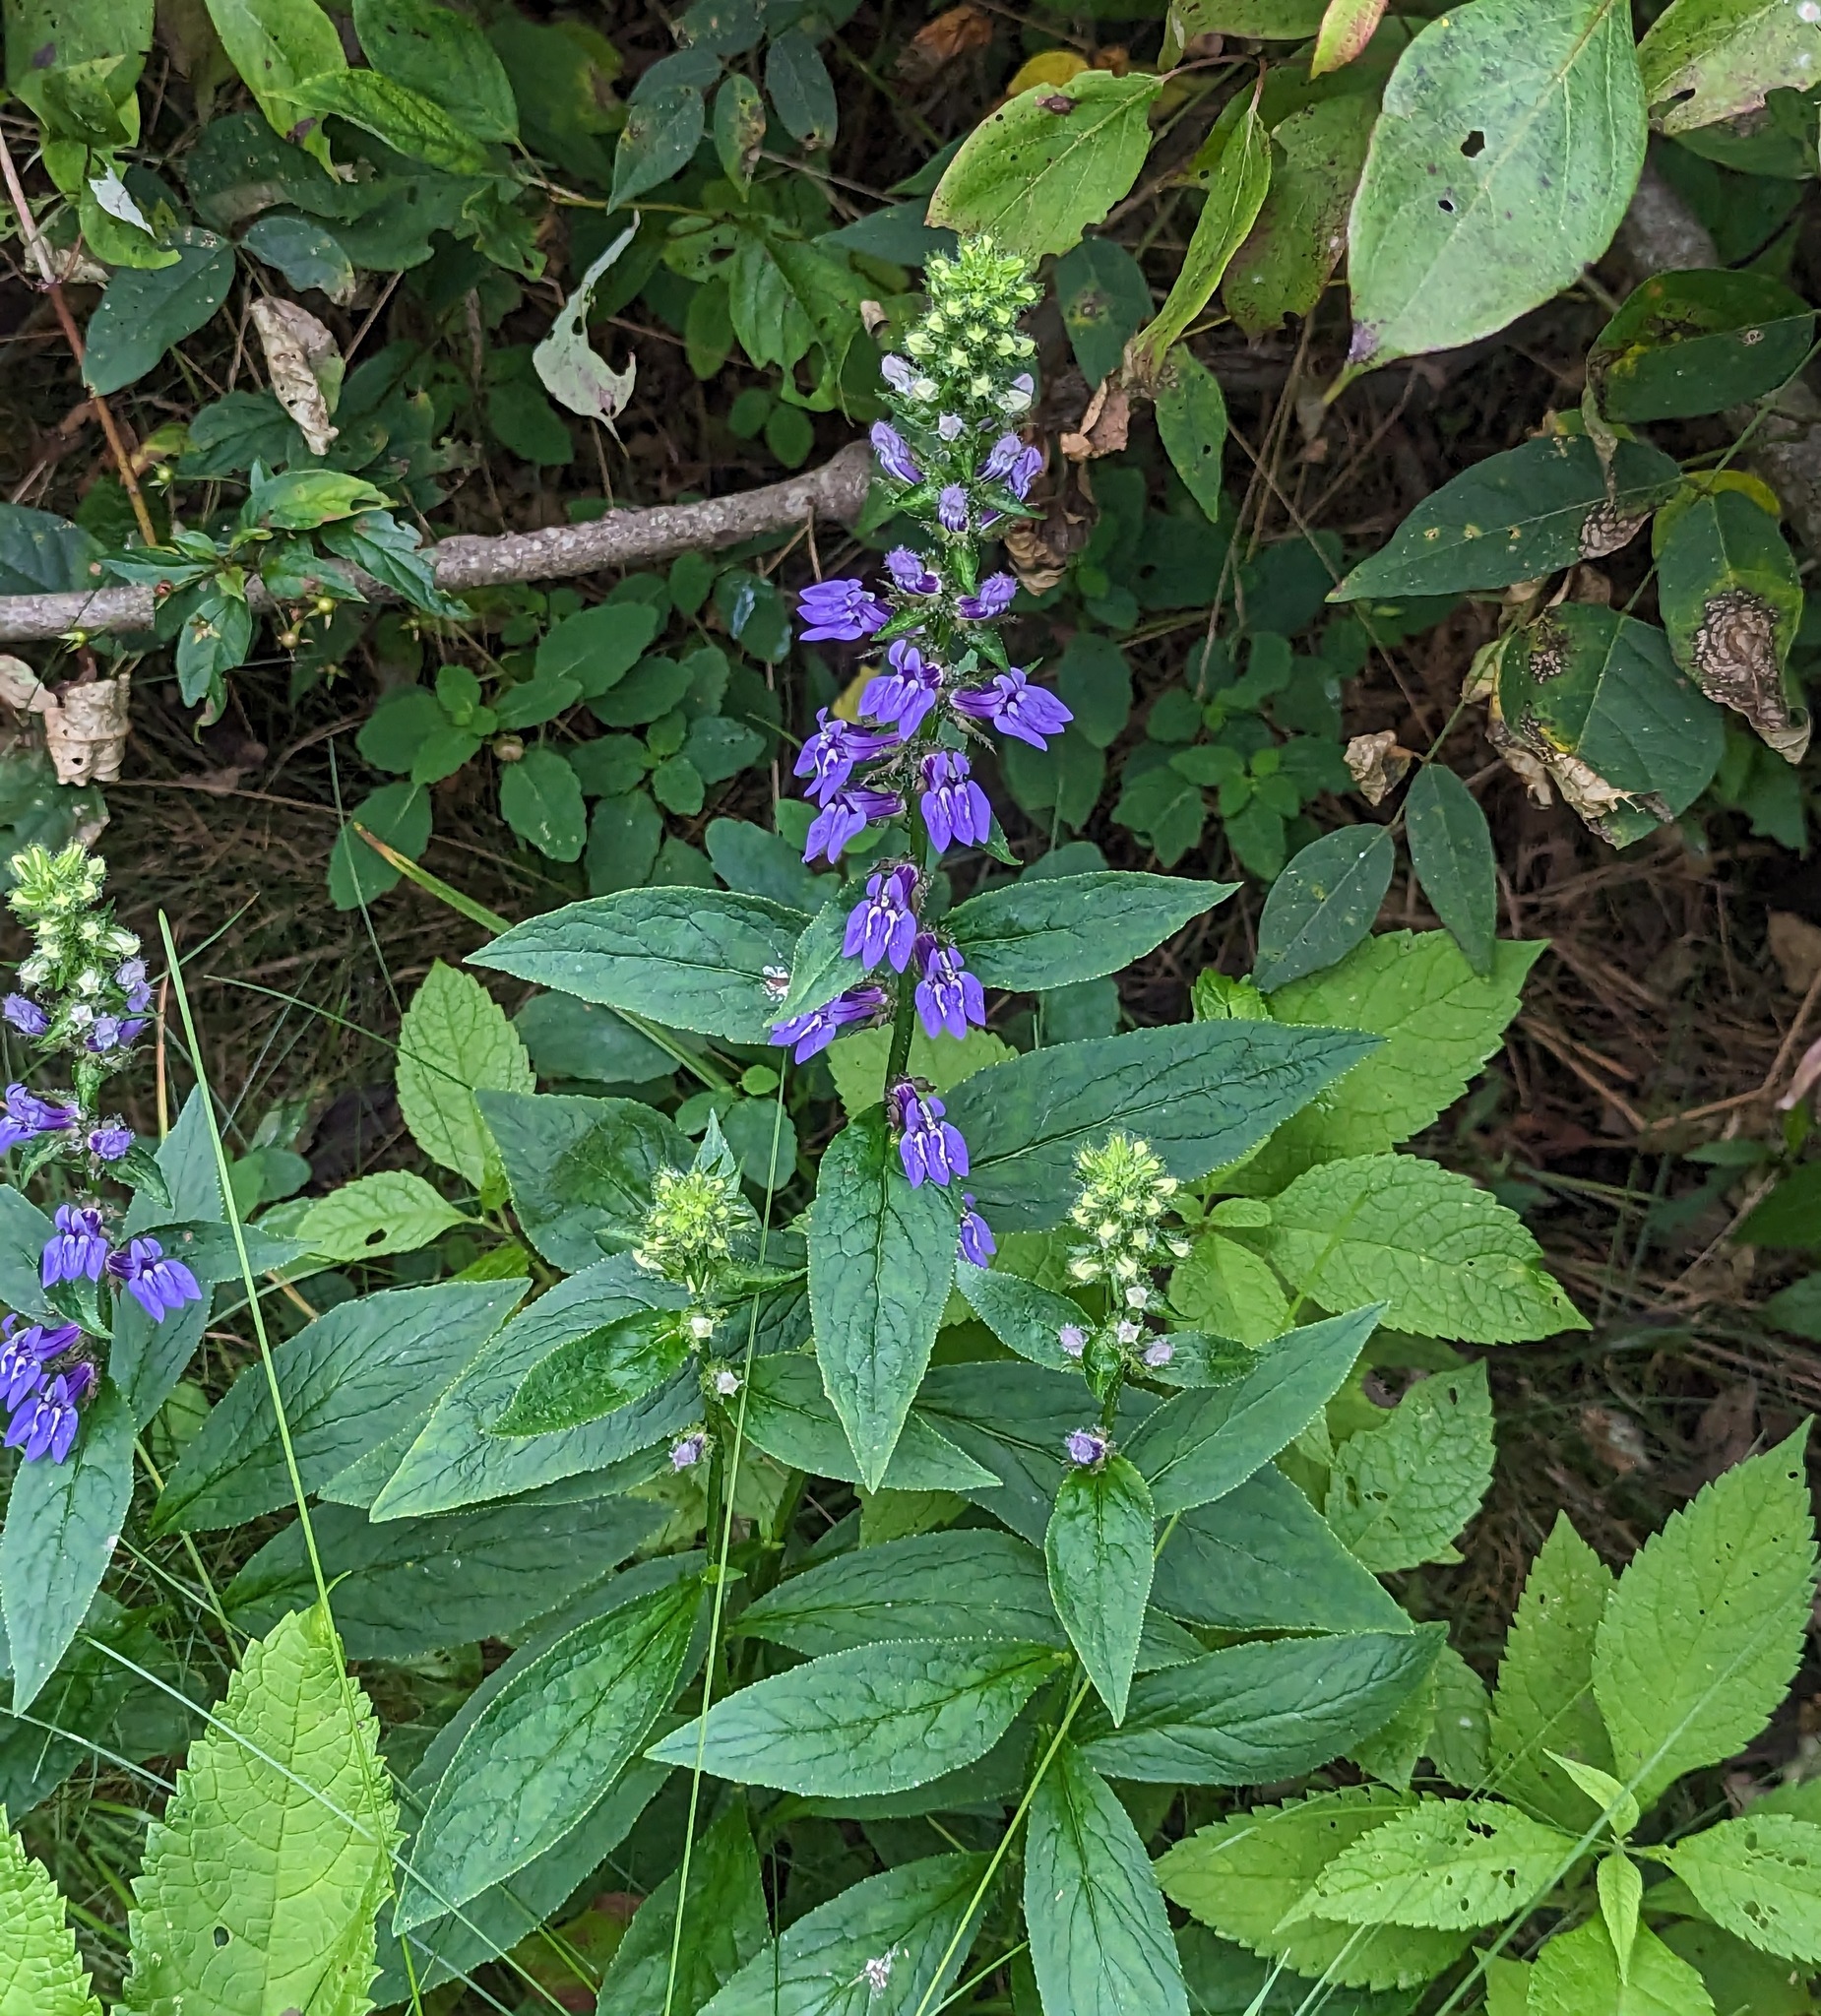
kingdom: Plantae
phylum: Tracheophyta
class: Magnoliopsida
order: Asterales
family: Campanulaceae
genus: Lobelia
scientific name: Lobelia siphilitica
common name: Great lobelia
